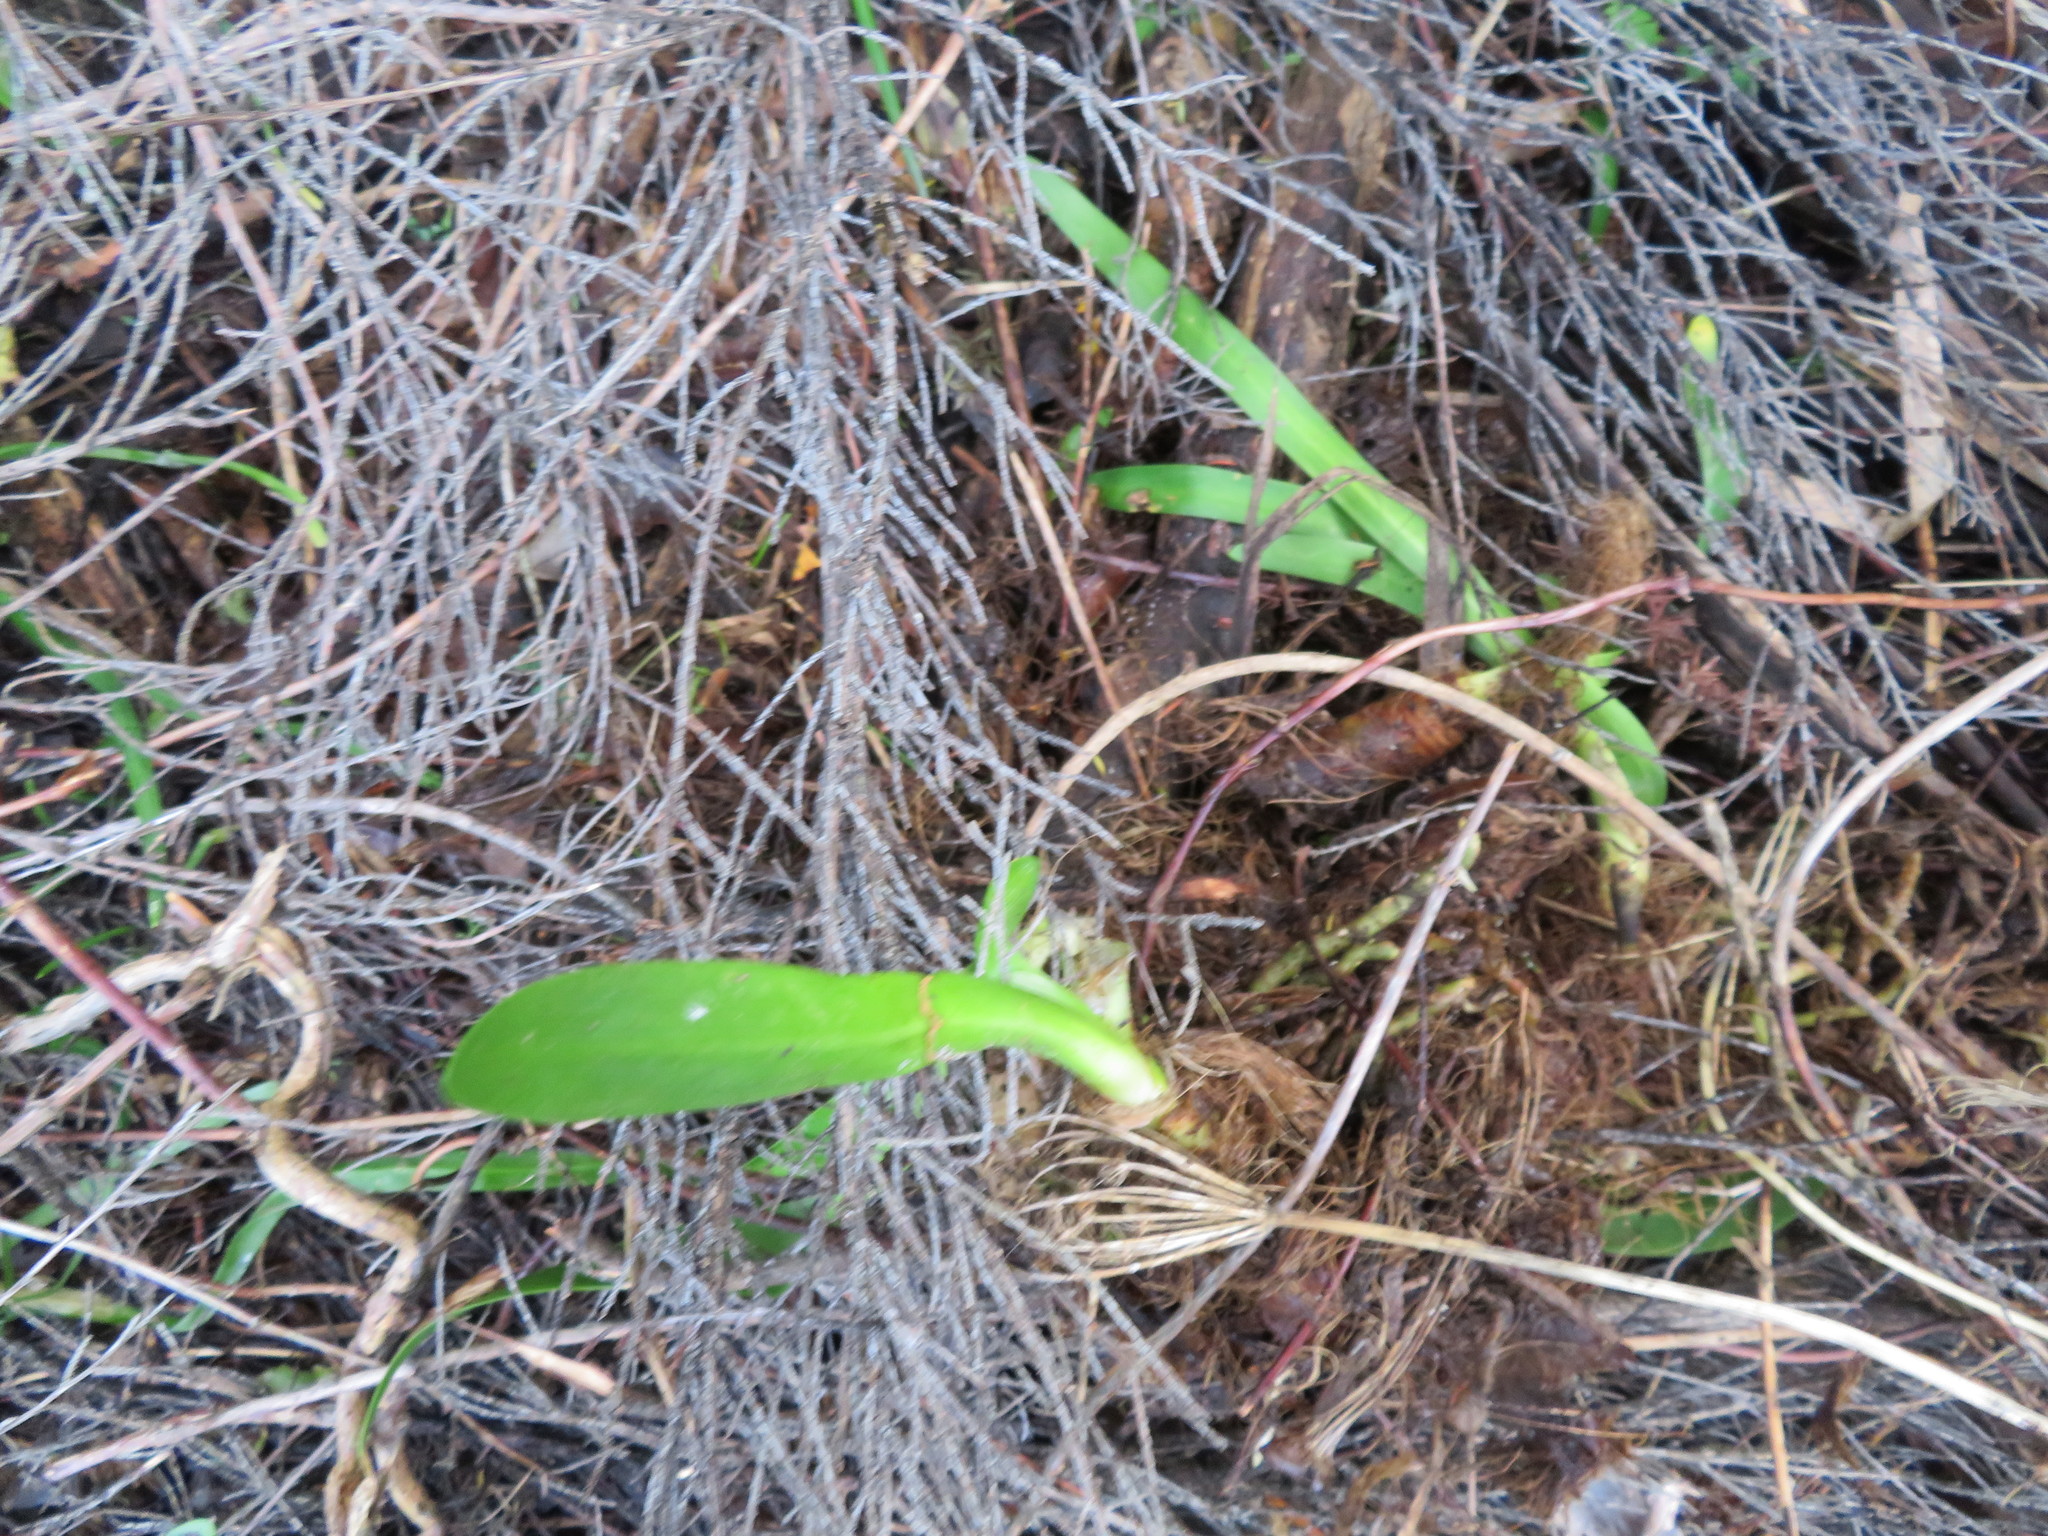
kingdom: Plantae
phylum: Tracheophyta
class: Liliopsida
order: Asparagales
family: Amaryllidaceae
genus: Agapanthus
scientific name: Agapanthus praecox
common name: African-lily
